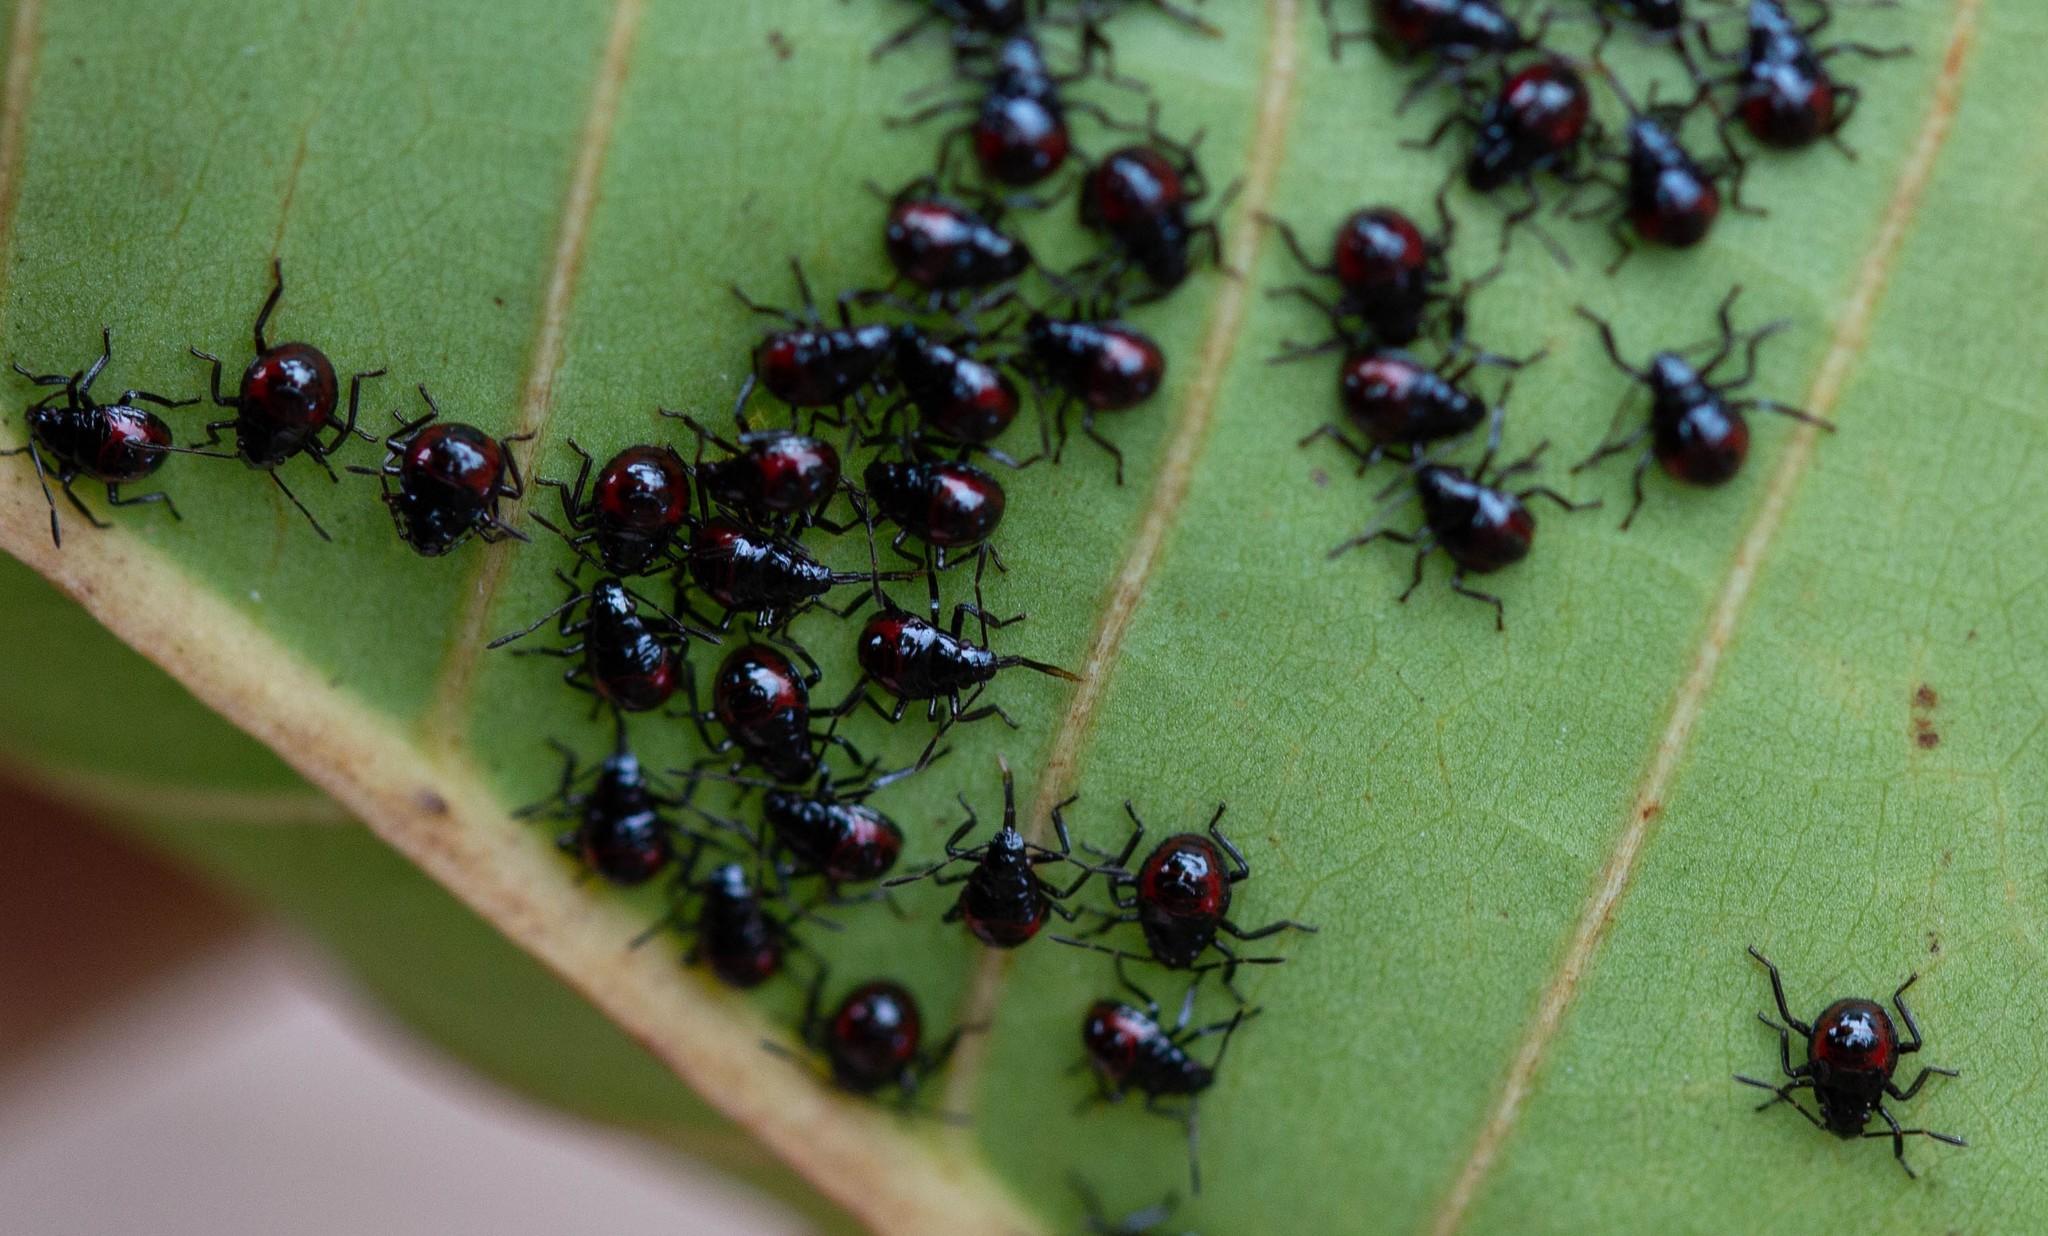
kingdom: Animalia
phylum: Arthropoda
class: Insecta
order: Hemiptera
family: Pentatomidae
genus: Tynacantha
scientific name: Tynacantha marginata
